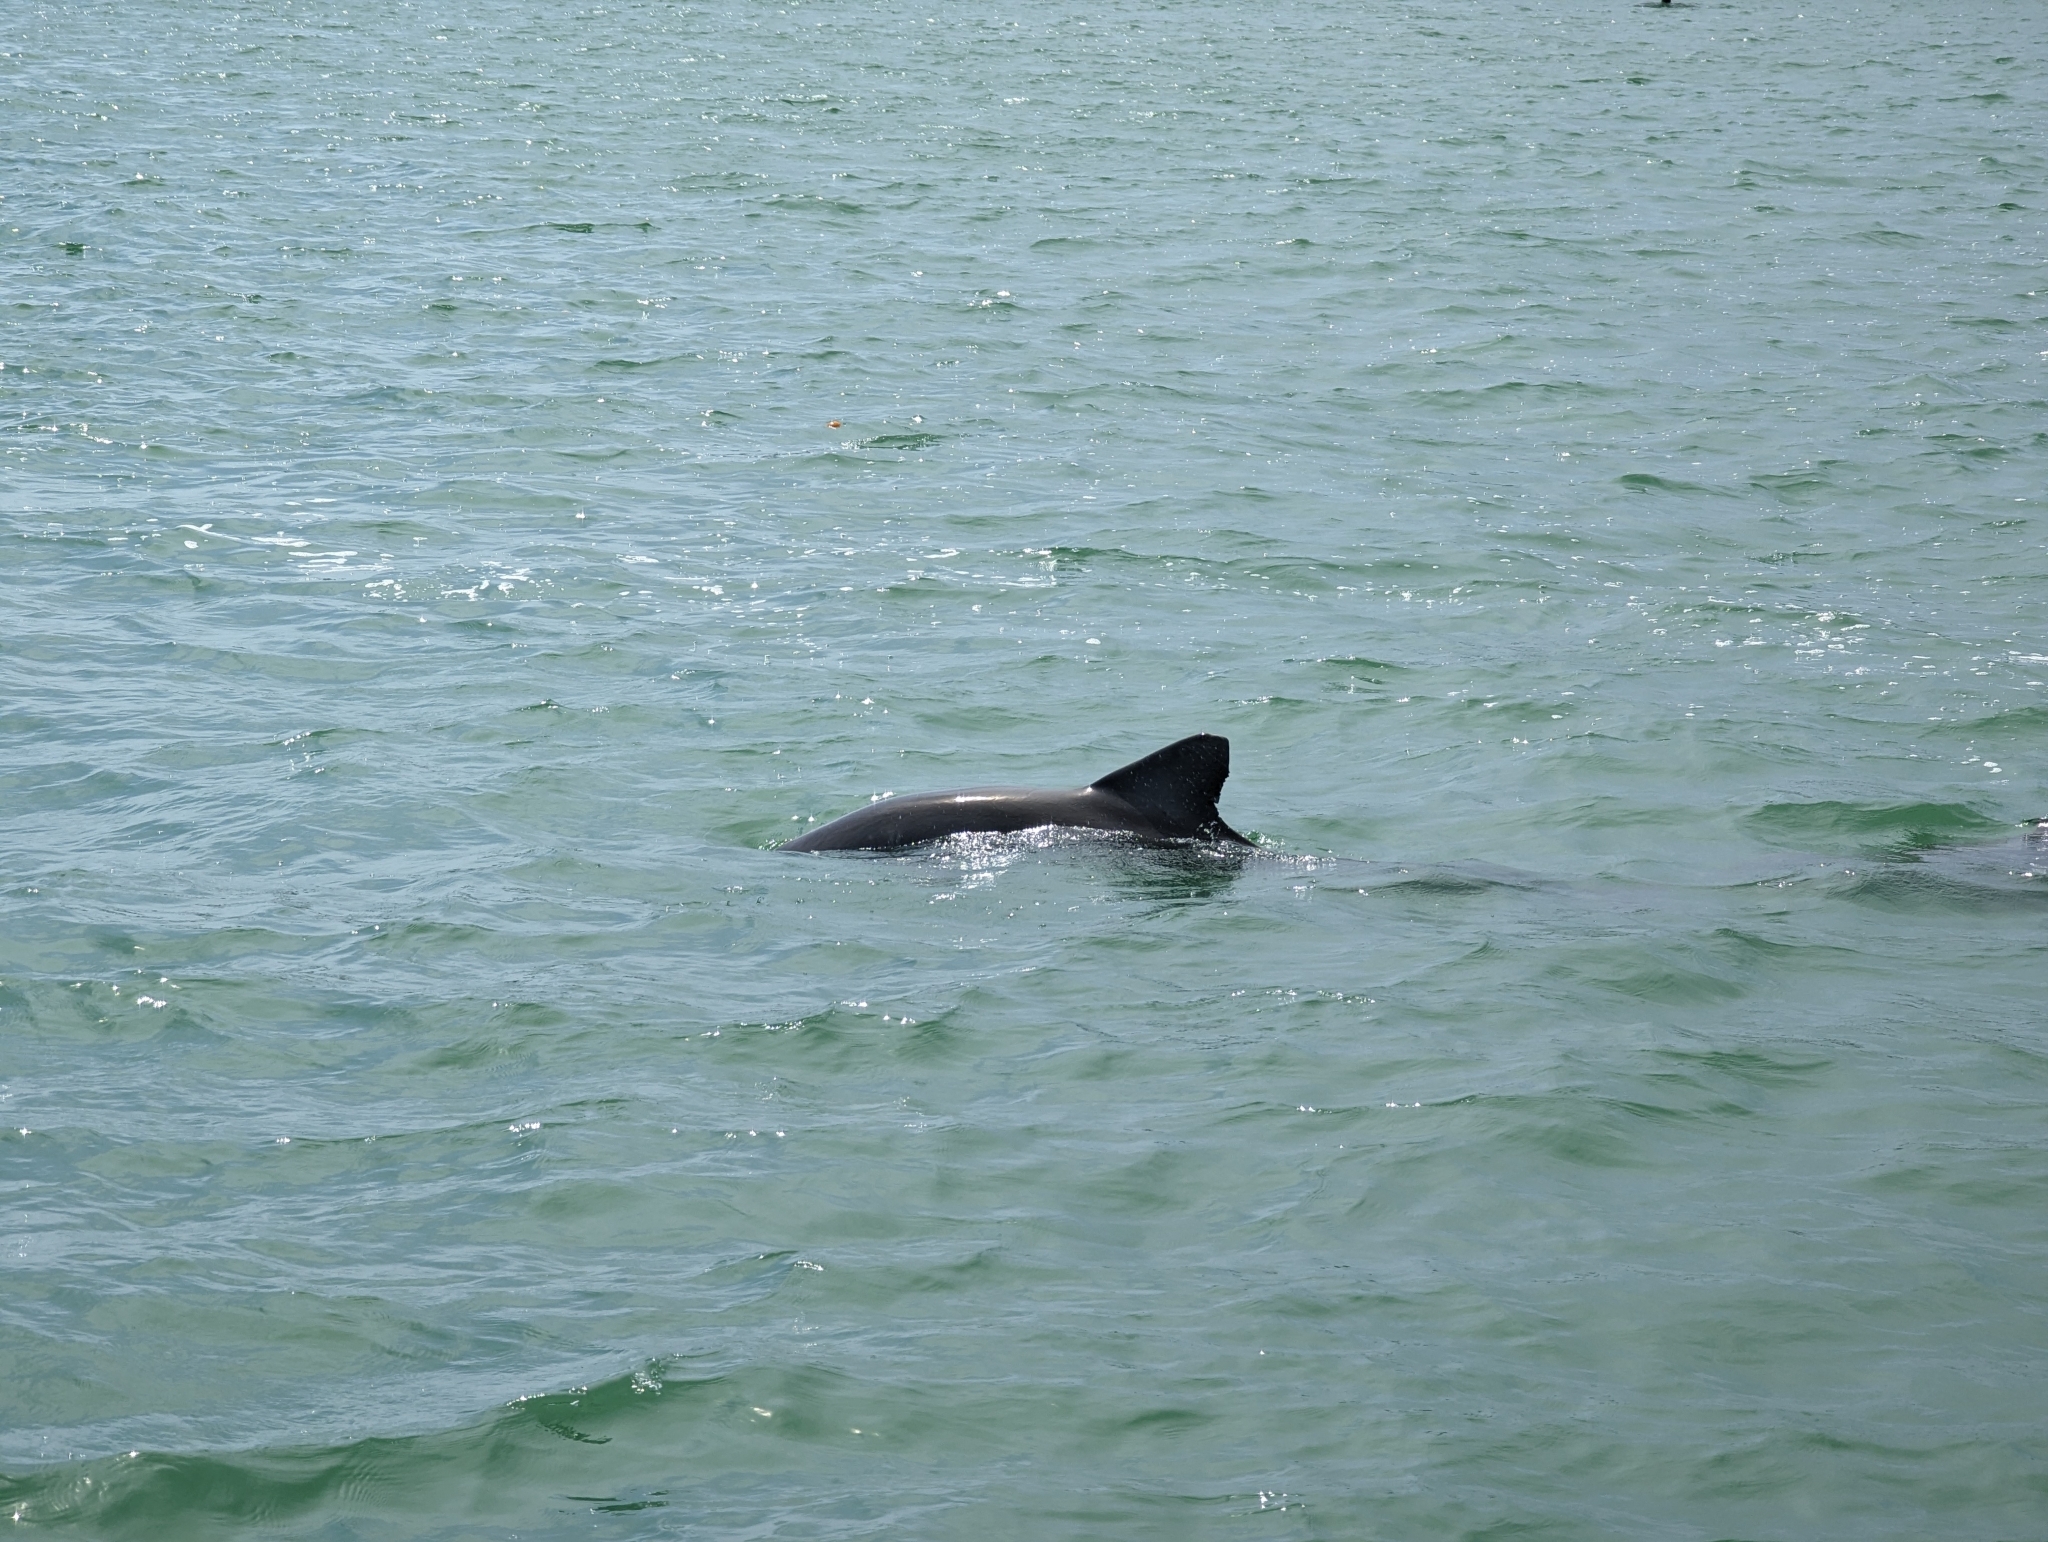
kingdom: Animalia
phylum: Chordata
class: Mammalia
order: Cetacea
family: Delphinidae
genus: Tursiops
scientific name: Tursiops truncatus
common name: Bottlenose dolphin
